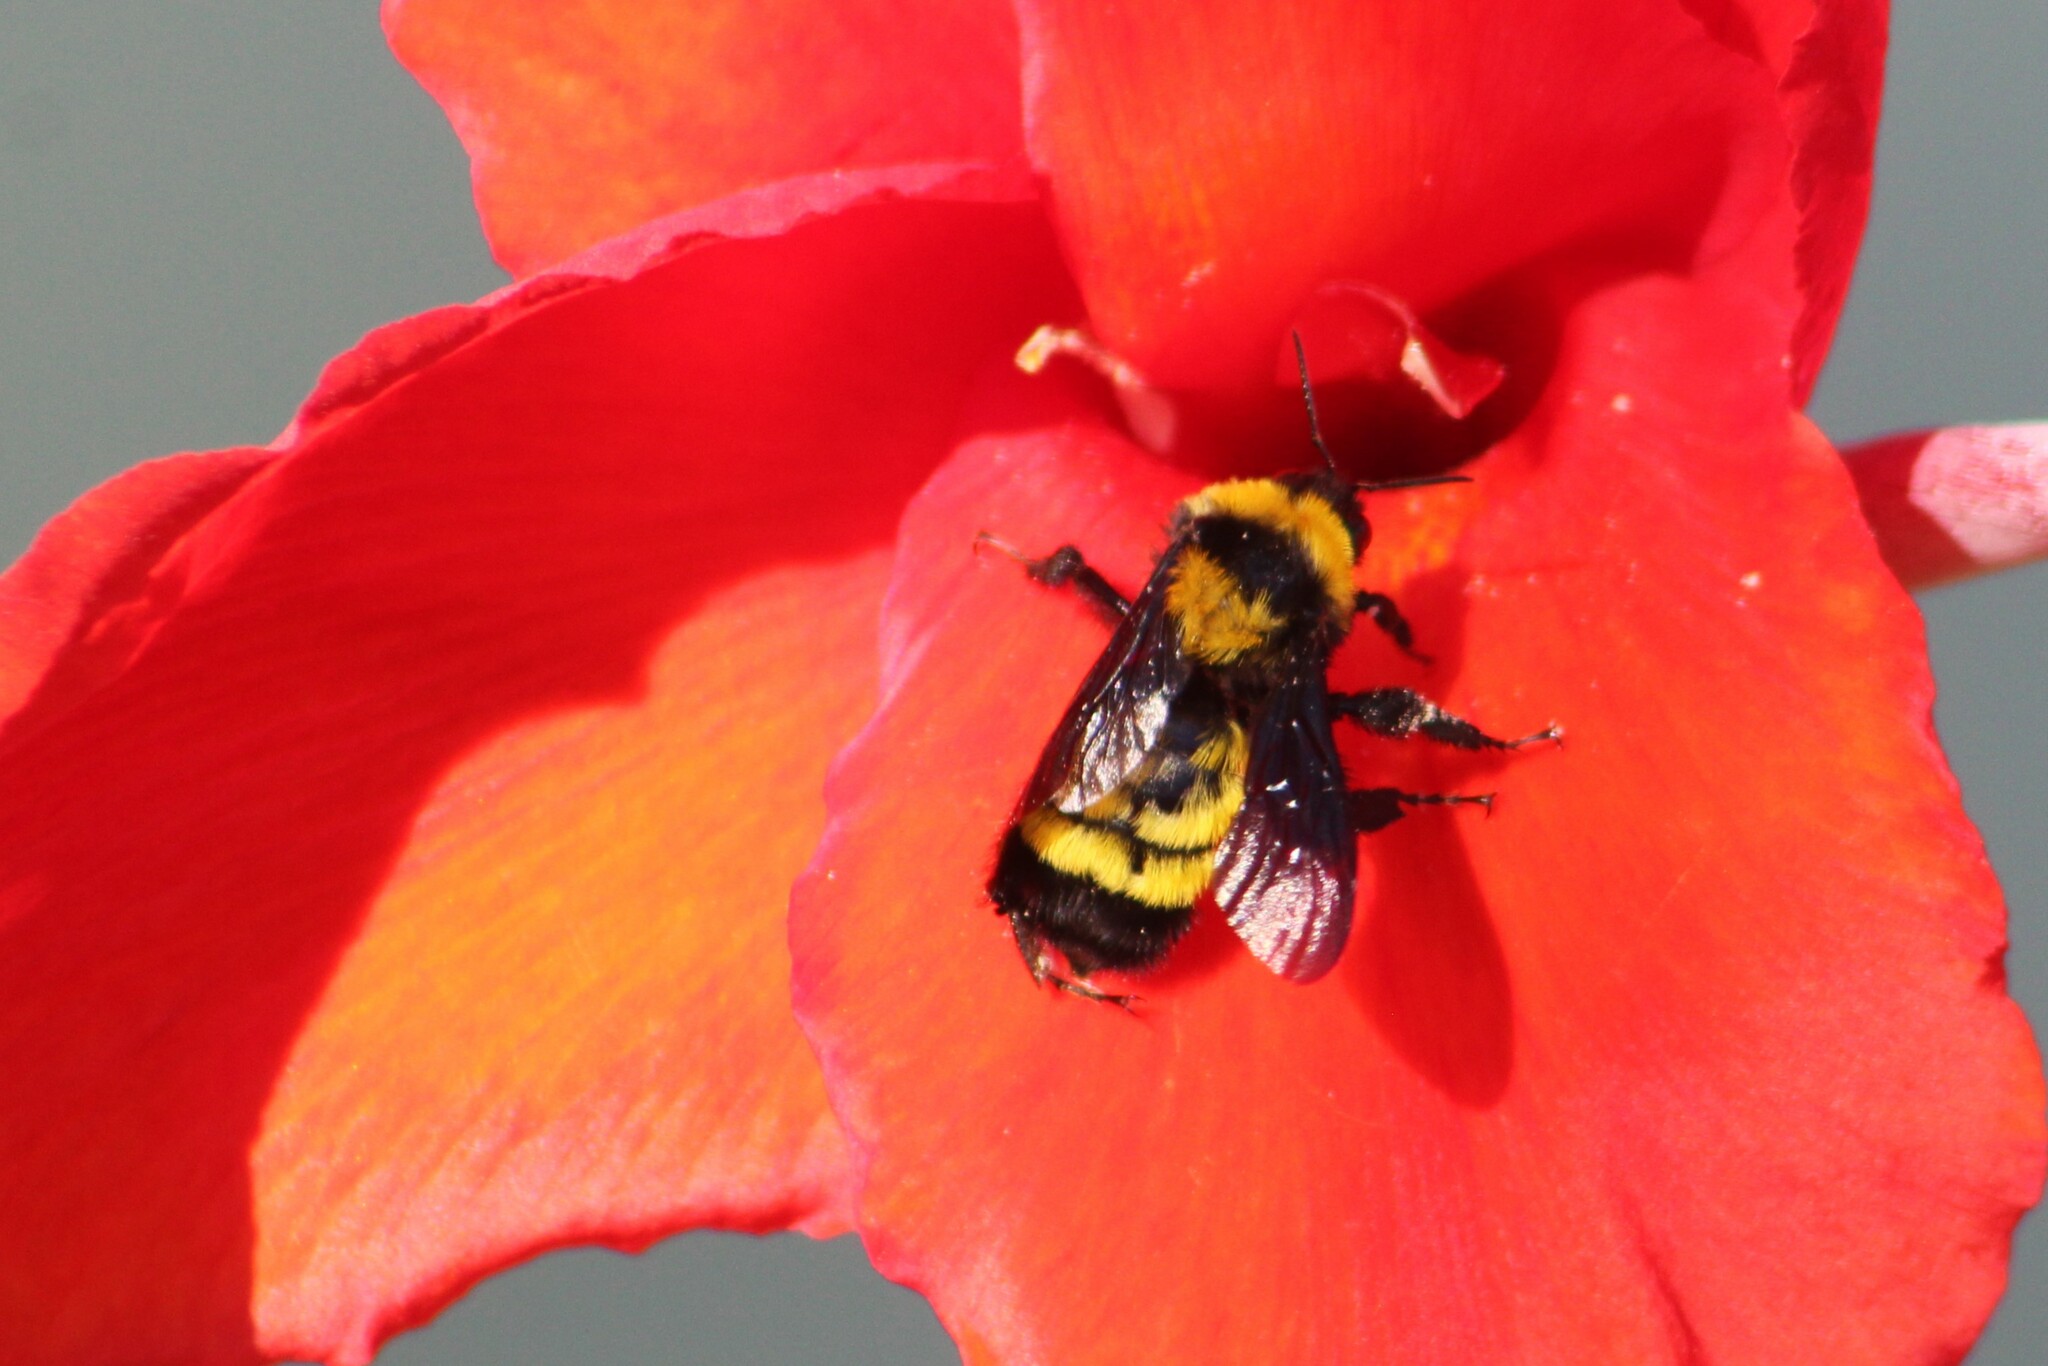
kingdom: Animalia
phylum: Arthropoda
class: Insecta
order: Hymenoptera
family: Apidae
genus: Bombus
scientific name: Bombus sonorus
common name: Sonoran bumble bee
